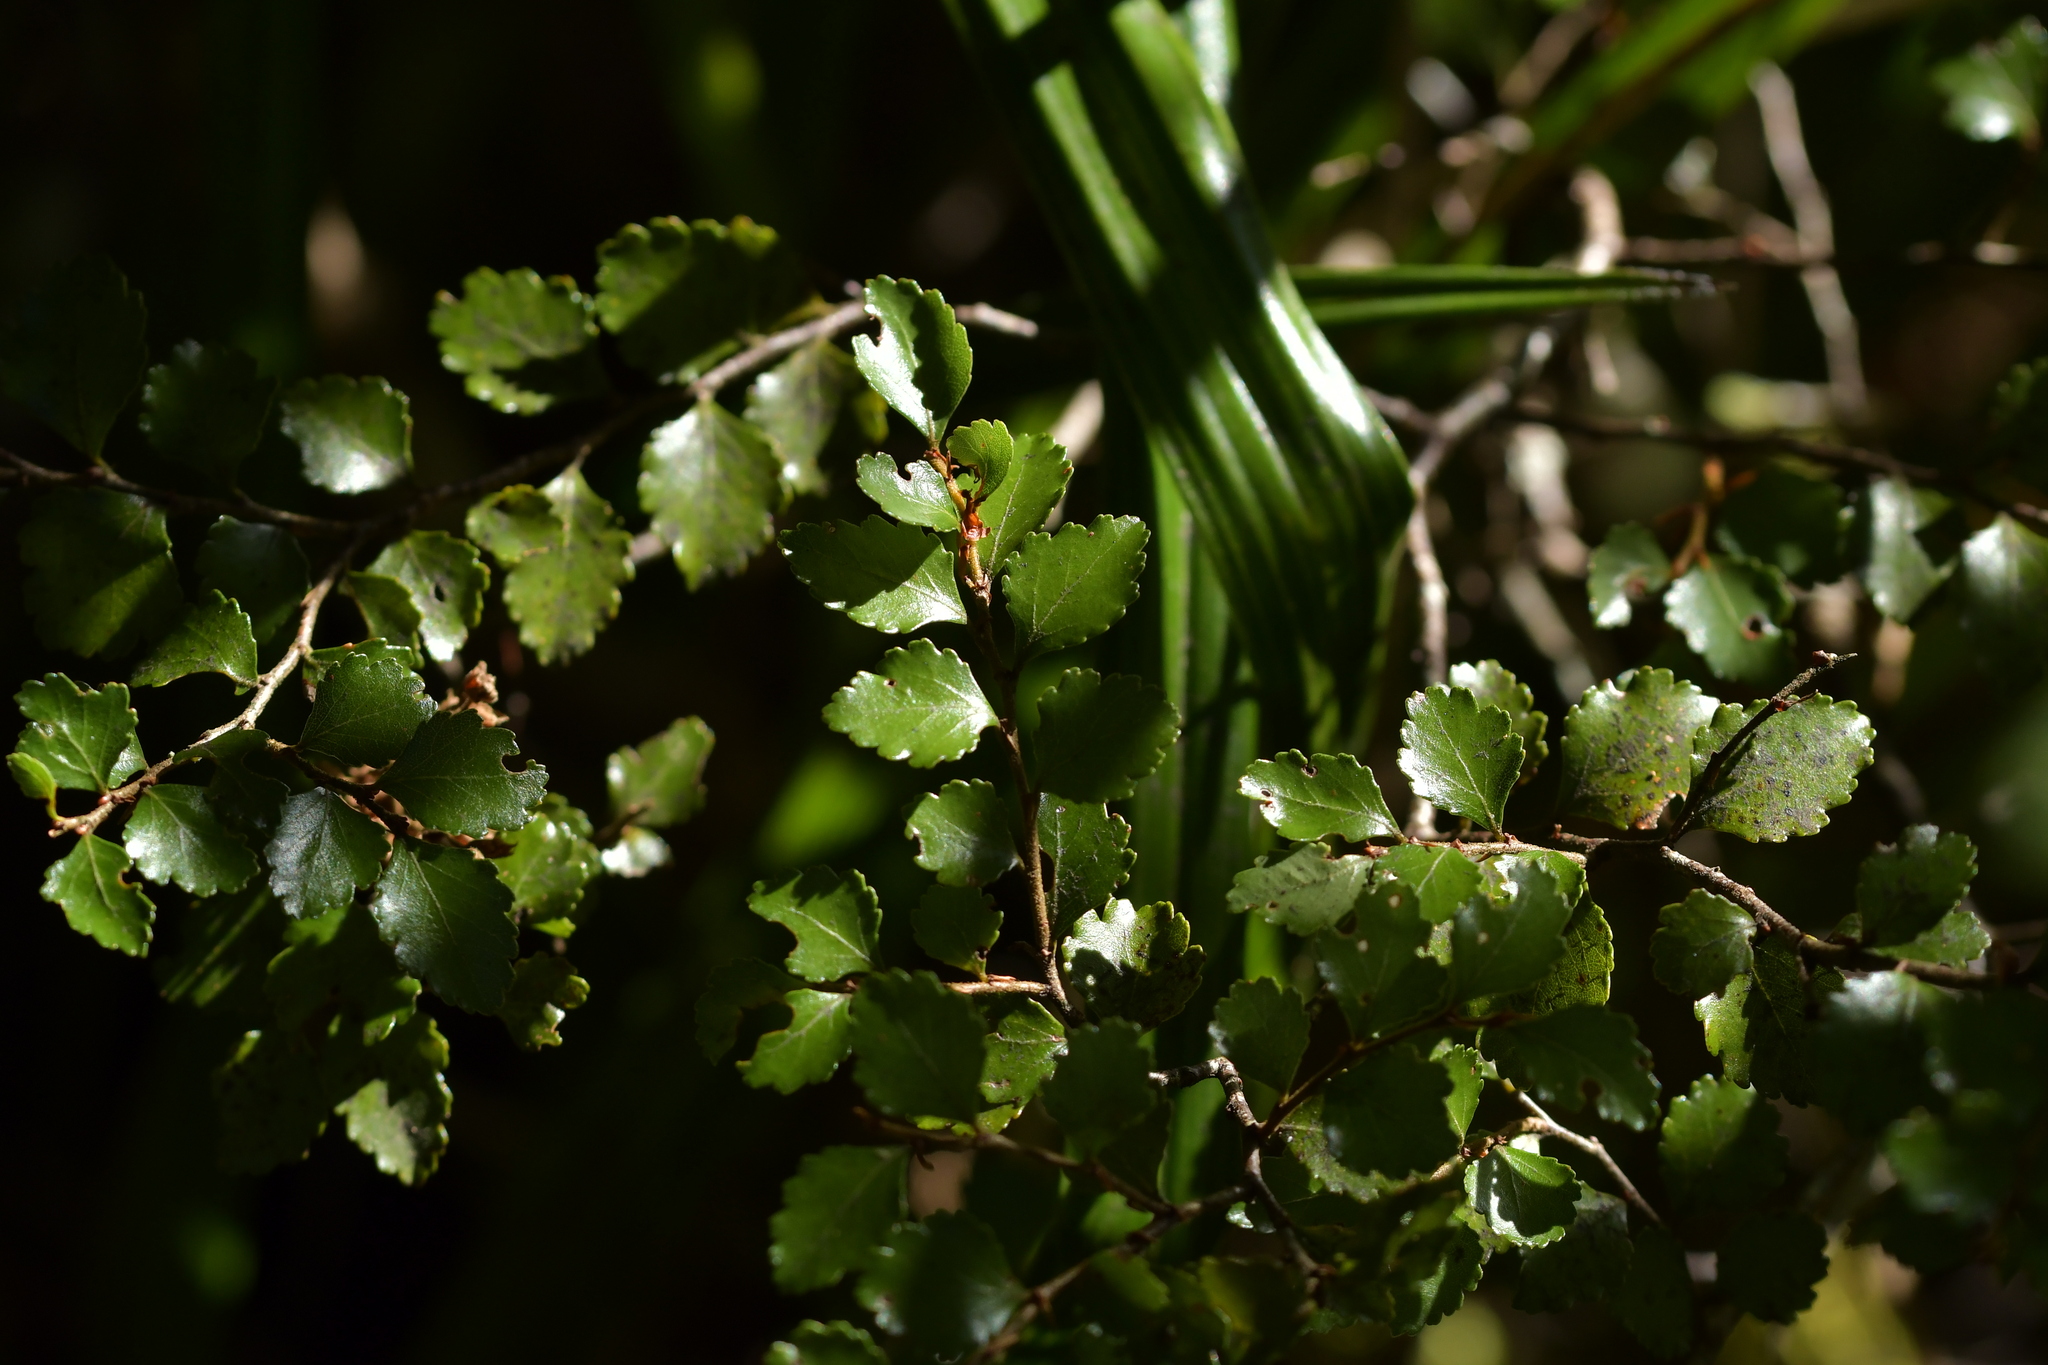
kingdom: Plantae
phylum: Tracheophyta
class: Magnoliopsida
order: Fagales
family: Nothofagaceae
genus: Nothofagus
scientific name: Nothofagus menziesii
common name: Silver beech
